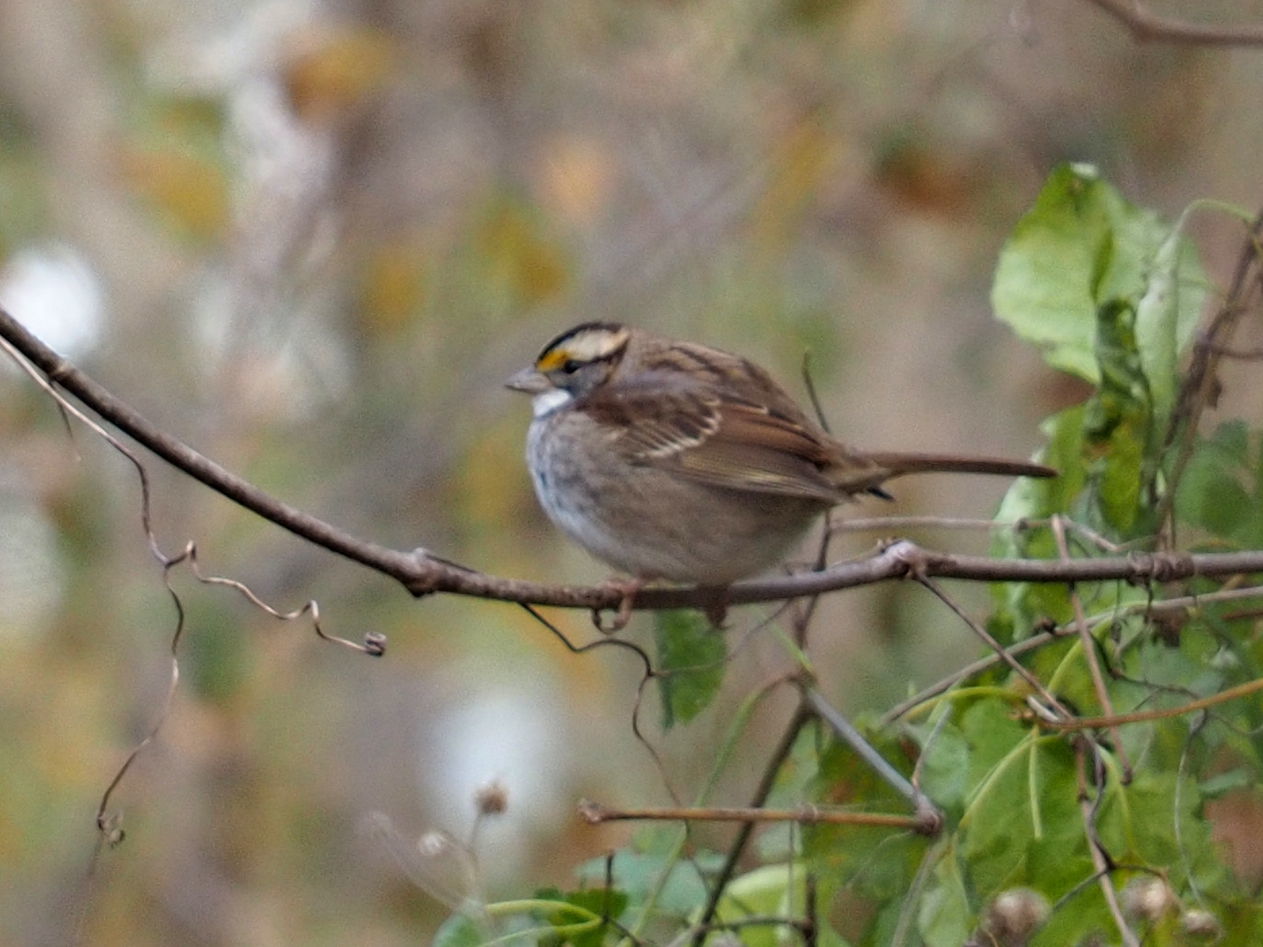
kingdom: Animalia
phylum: Chordata
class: Aves
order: Passeriformes
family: Passerellidae
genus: Zonotrichia
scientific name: Zonotrichia albicollis
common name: White-throated sparrow
